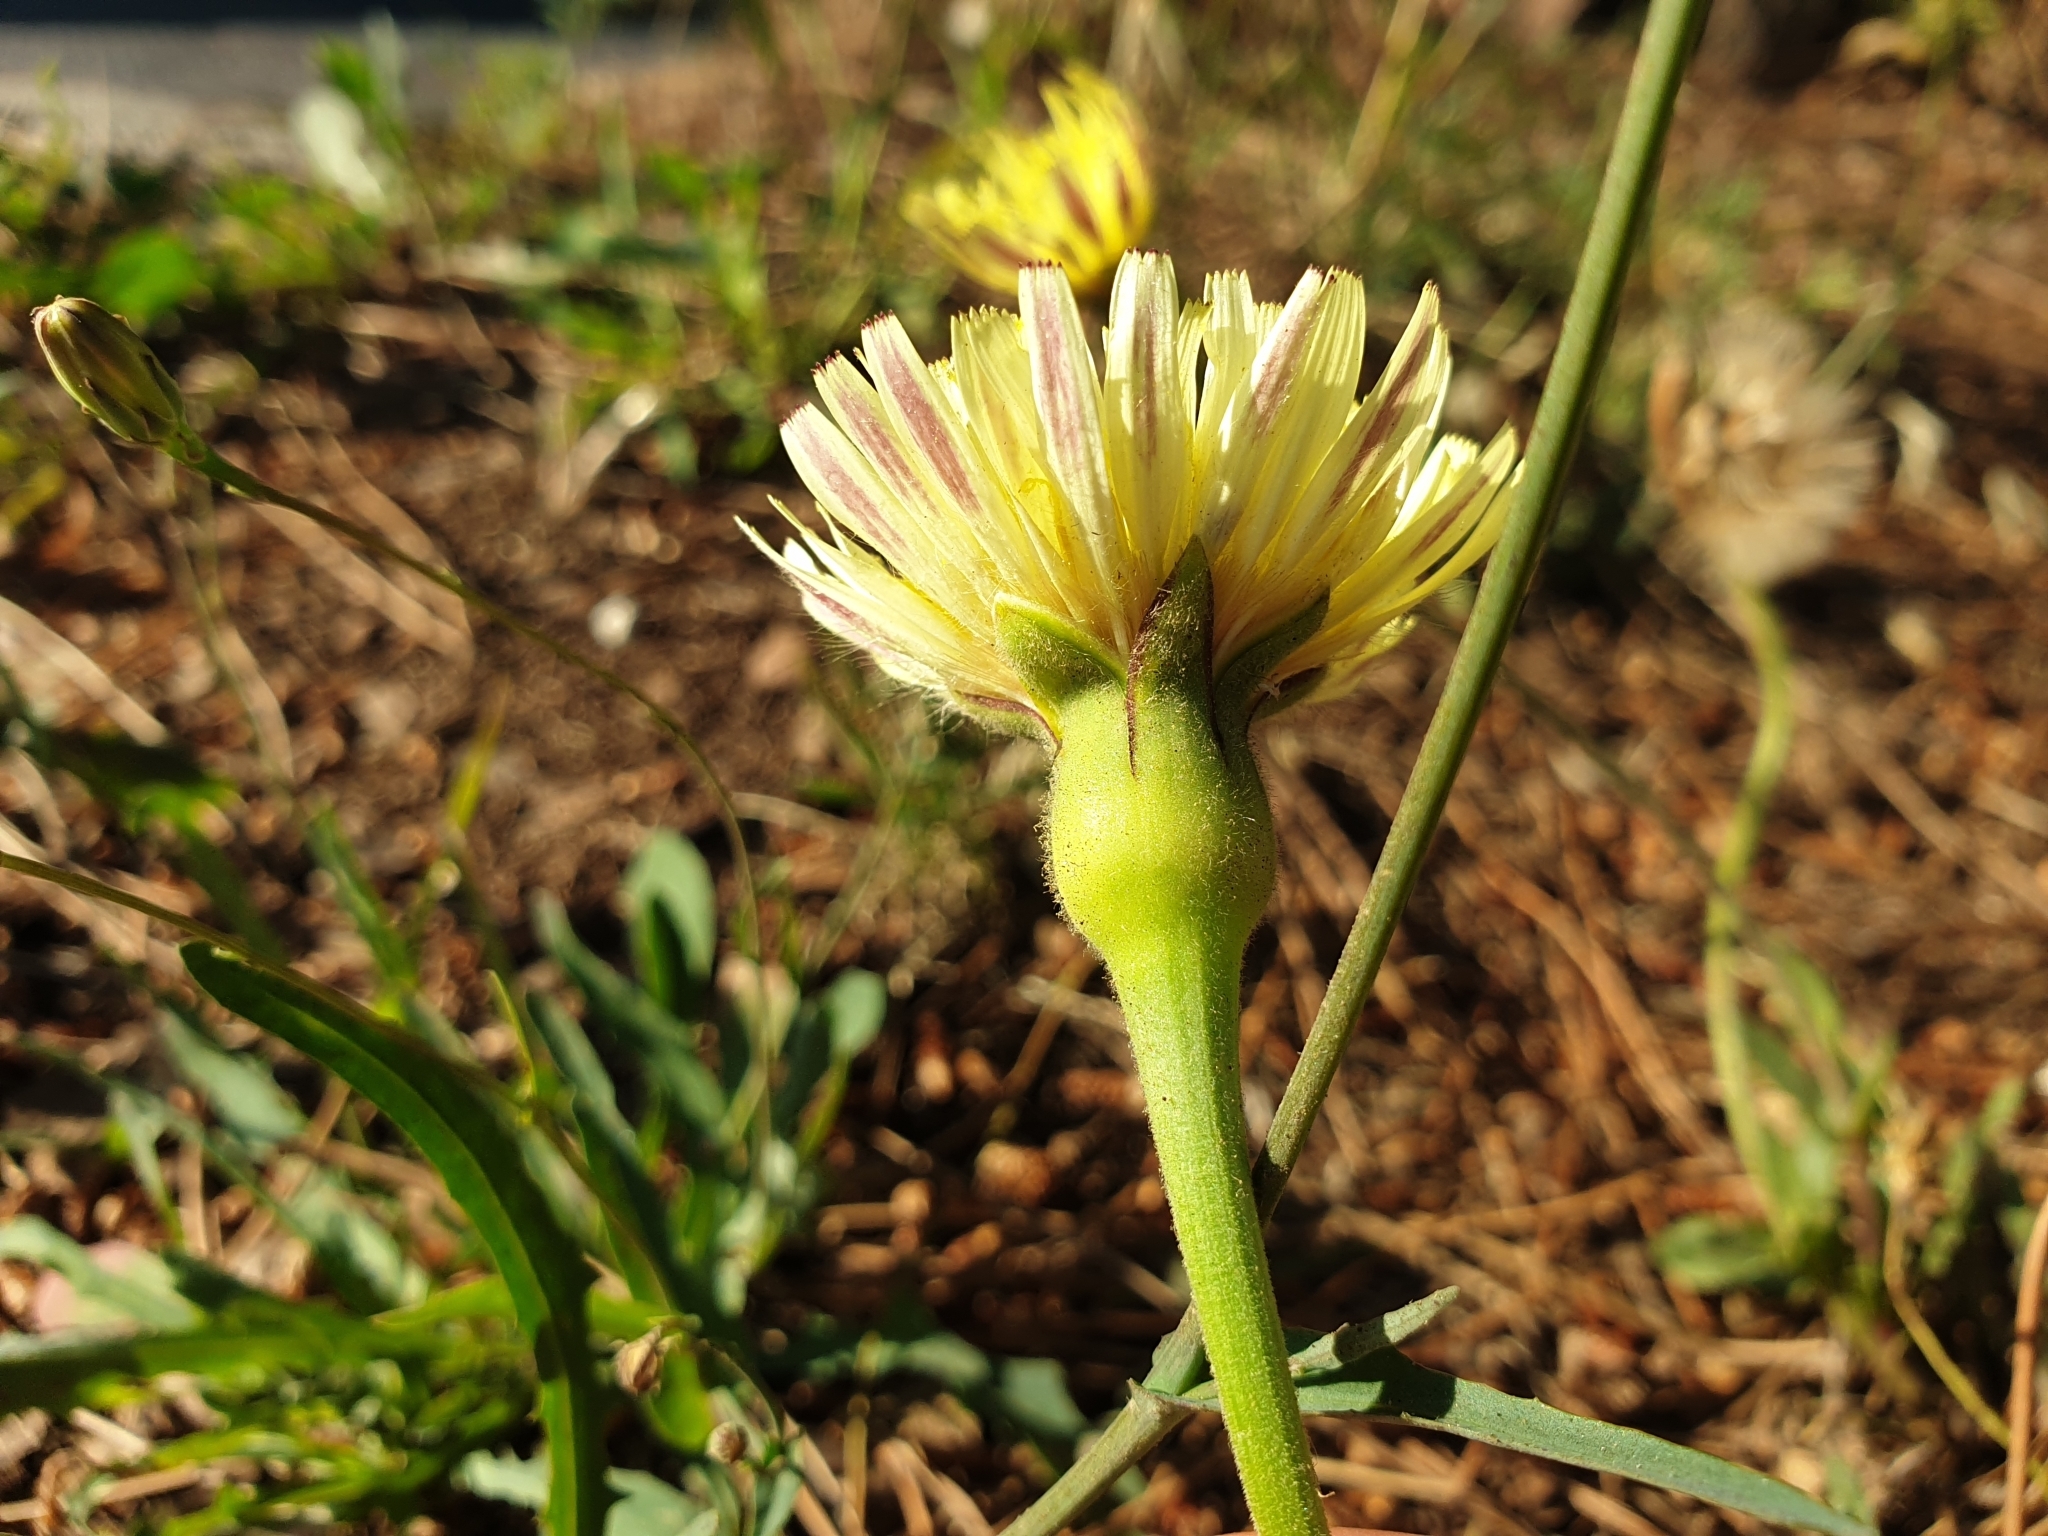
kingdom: Plantae
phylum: Tracheophyta
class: Magnoliopsida
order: Asterales
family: Asteraceae
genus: Urospermum
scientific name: Urospermum dalechampii
